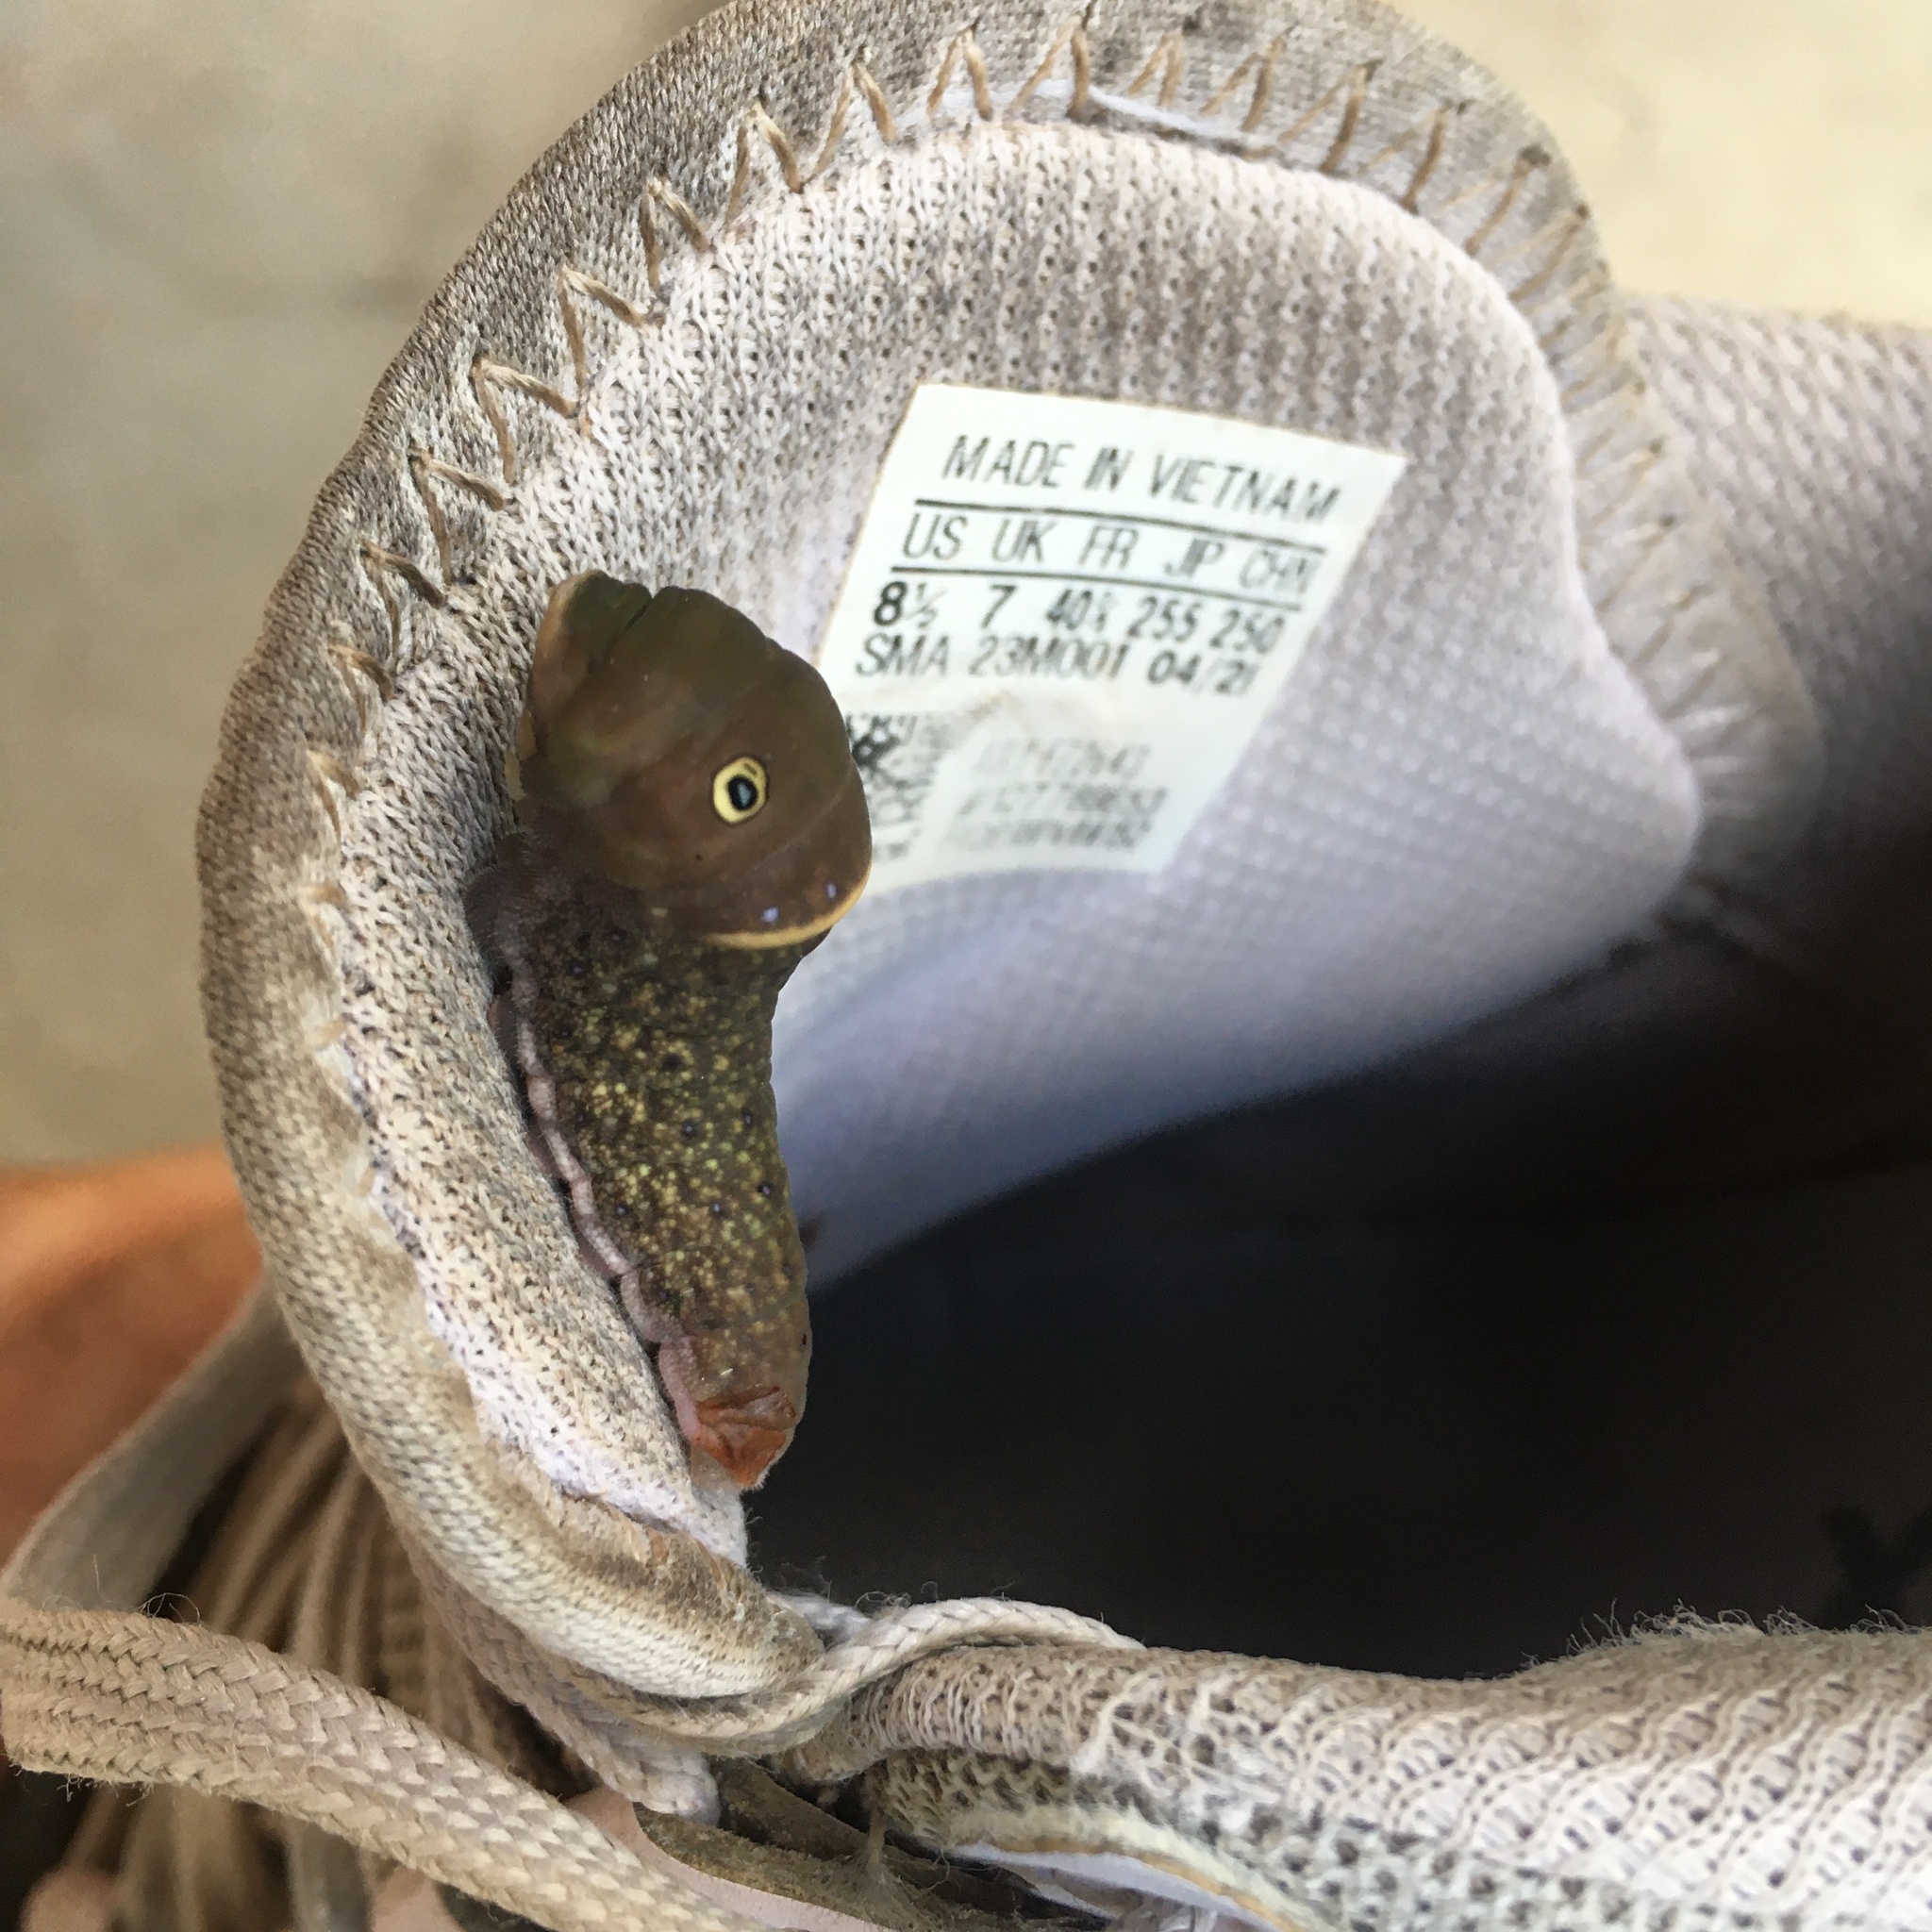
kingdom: Animalia
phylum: Arthropoda
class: Insecta
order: Lepidoptera
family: Papilionidae
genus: Papilio
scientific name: Papilio glaucus
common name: Tiger swallowtail
